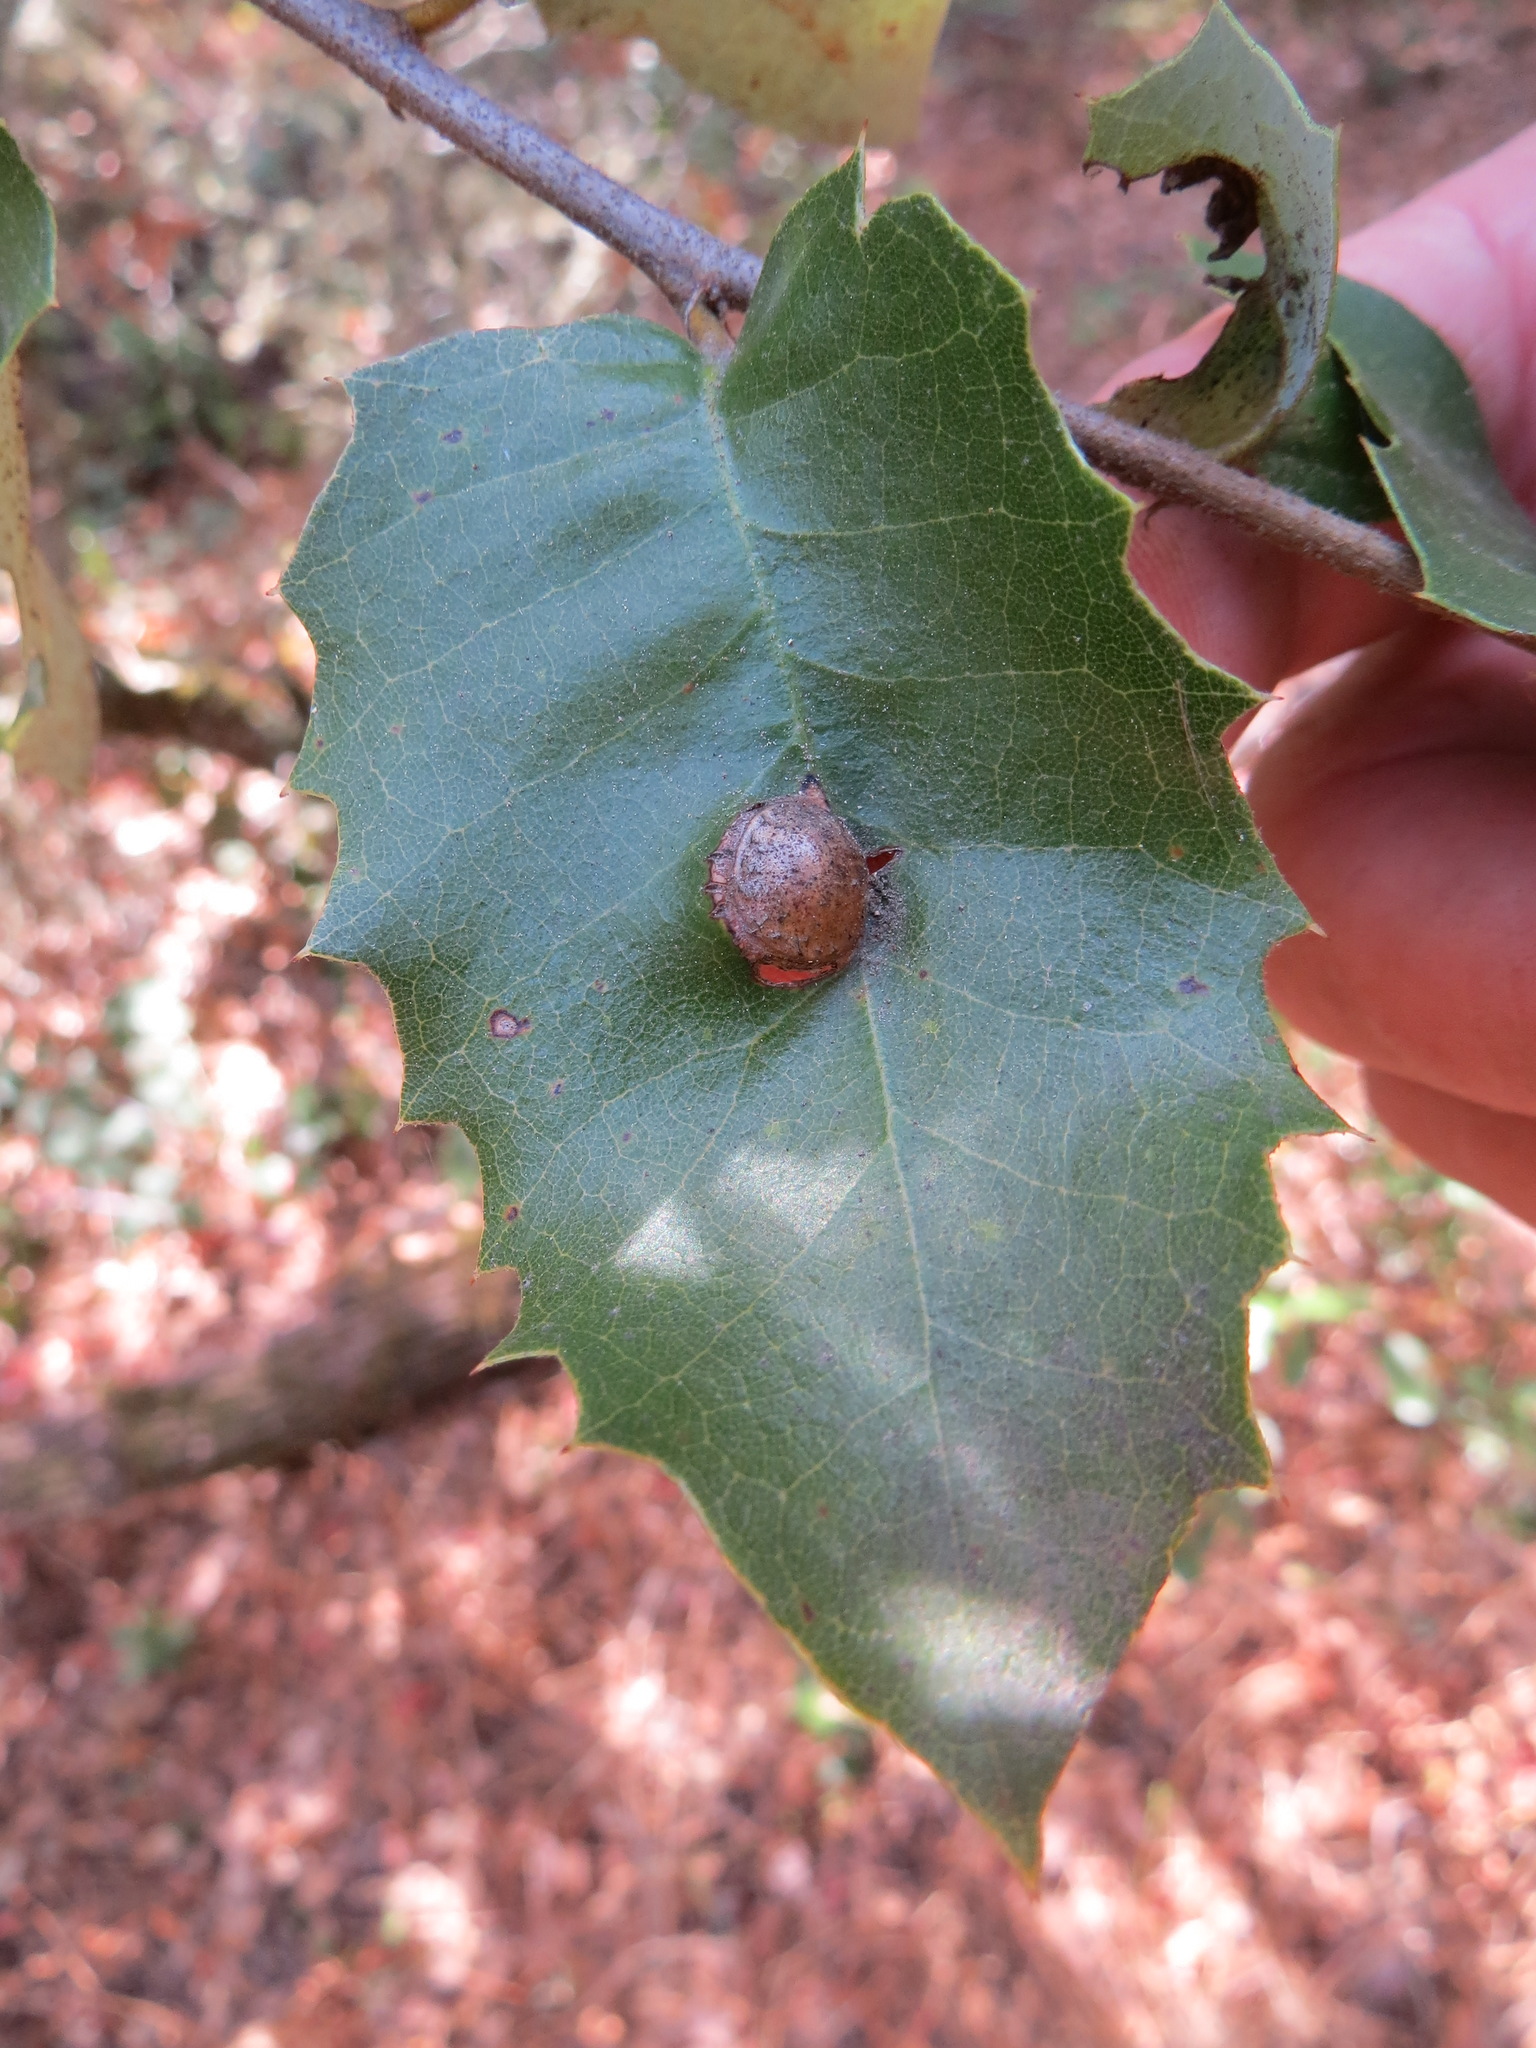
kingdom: Animalia
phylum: Arthropoda
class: Insecta
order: Hymenoptera
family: Cynipidae
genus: Heteroecus
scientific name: Heteroecus
